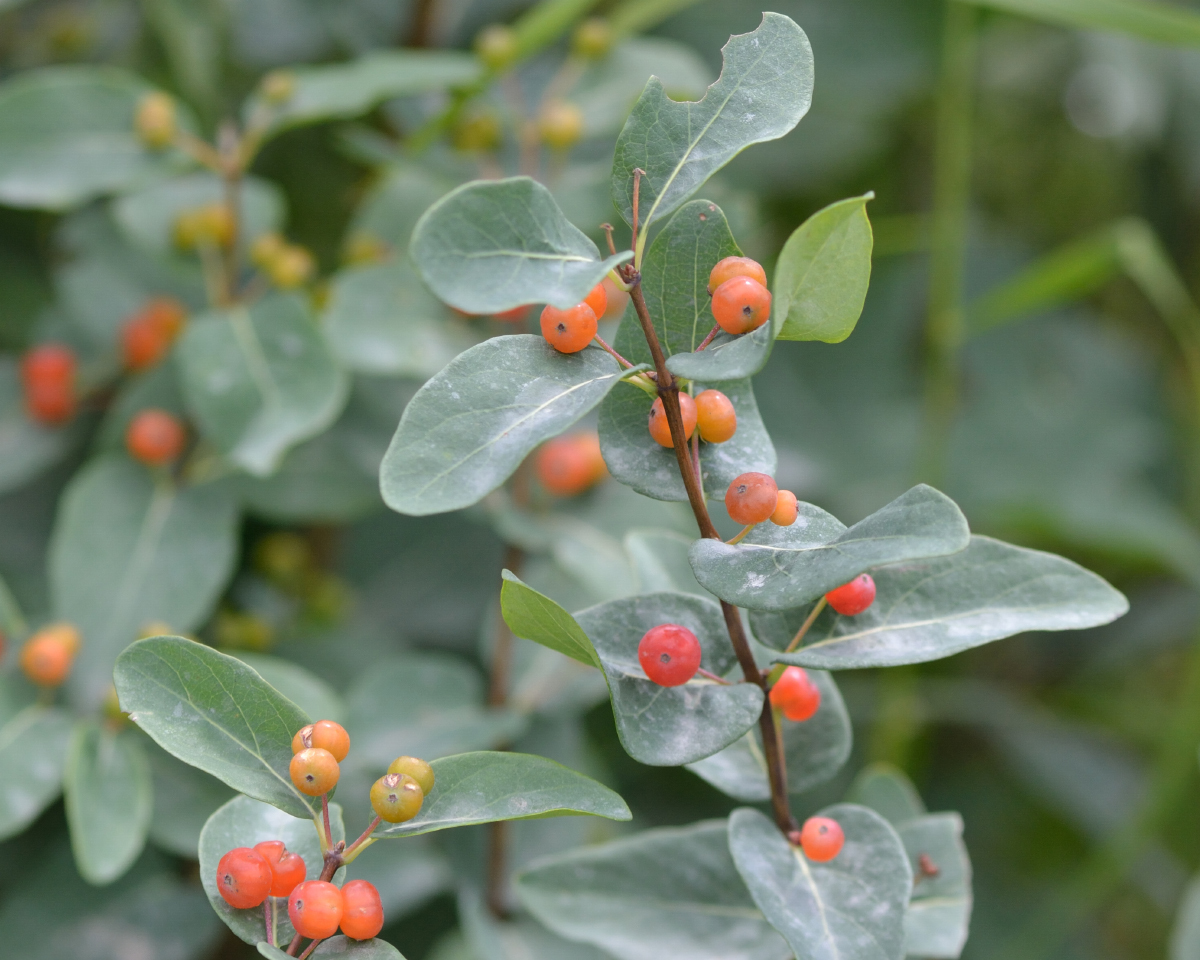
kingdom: Plantae
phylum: Tracheophyta
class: Magnoliopsida
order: Dipsacales
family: Caprifoliaceae
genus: Lonicera
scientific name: Lonicera tatarica
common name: Tatarian honeysuckle
